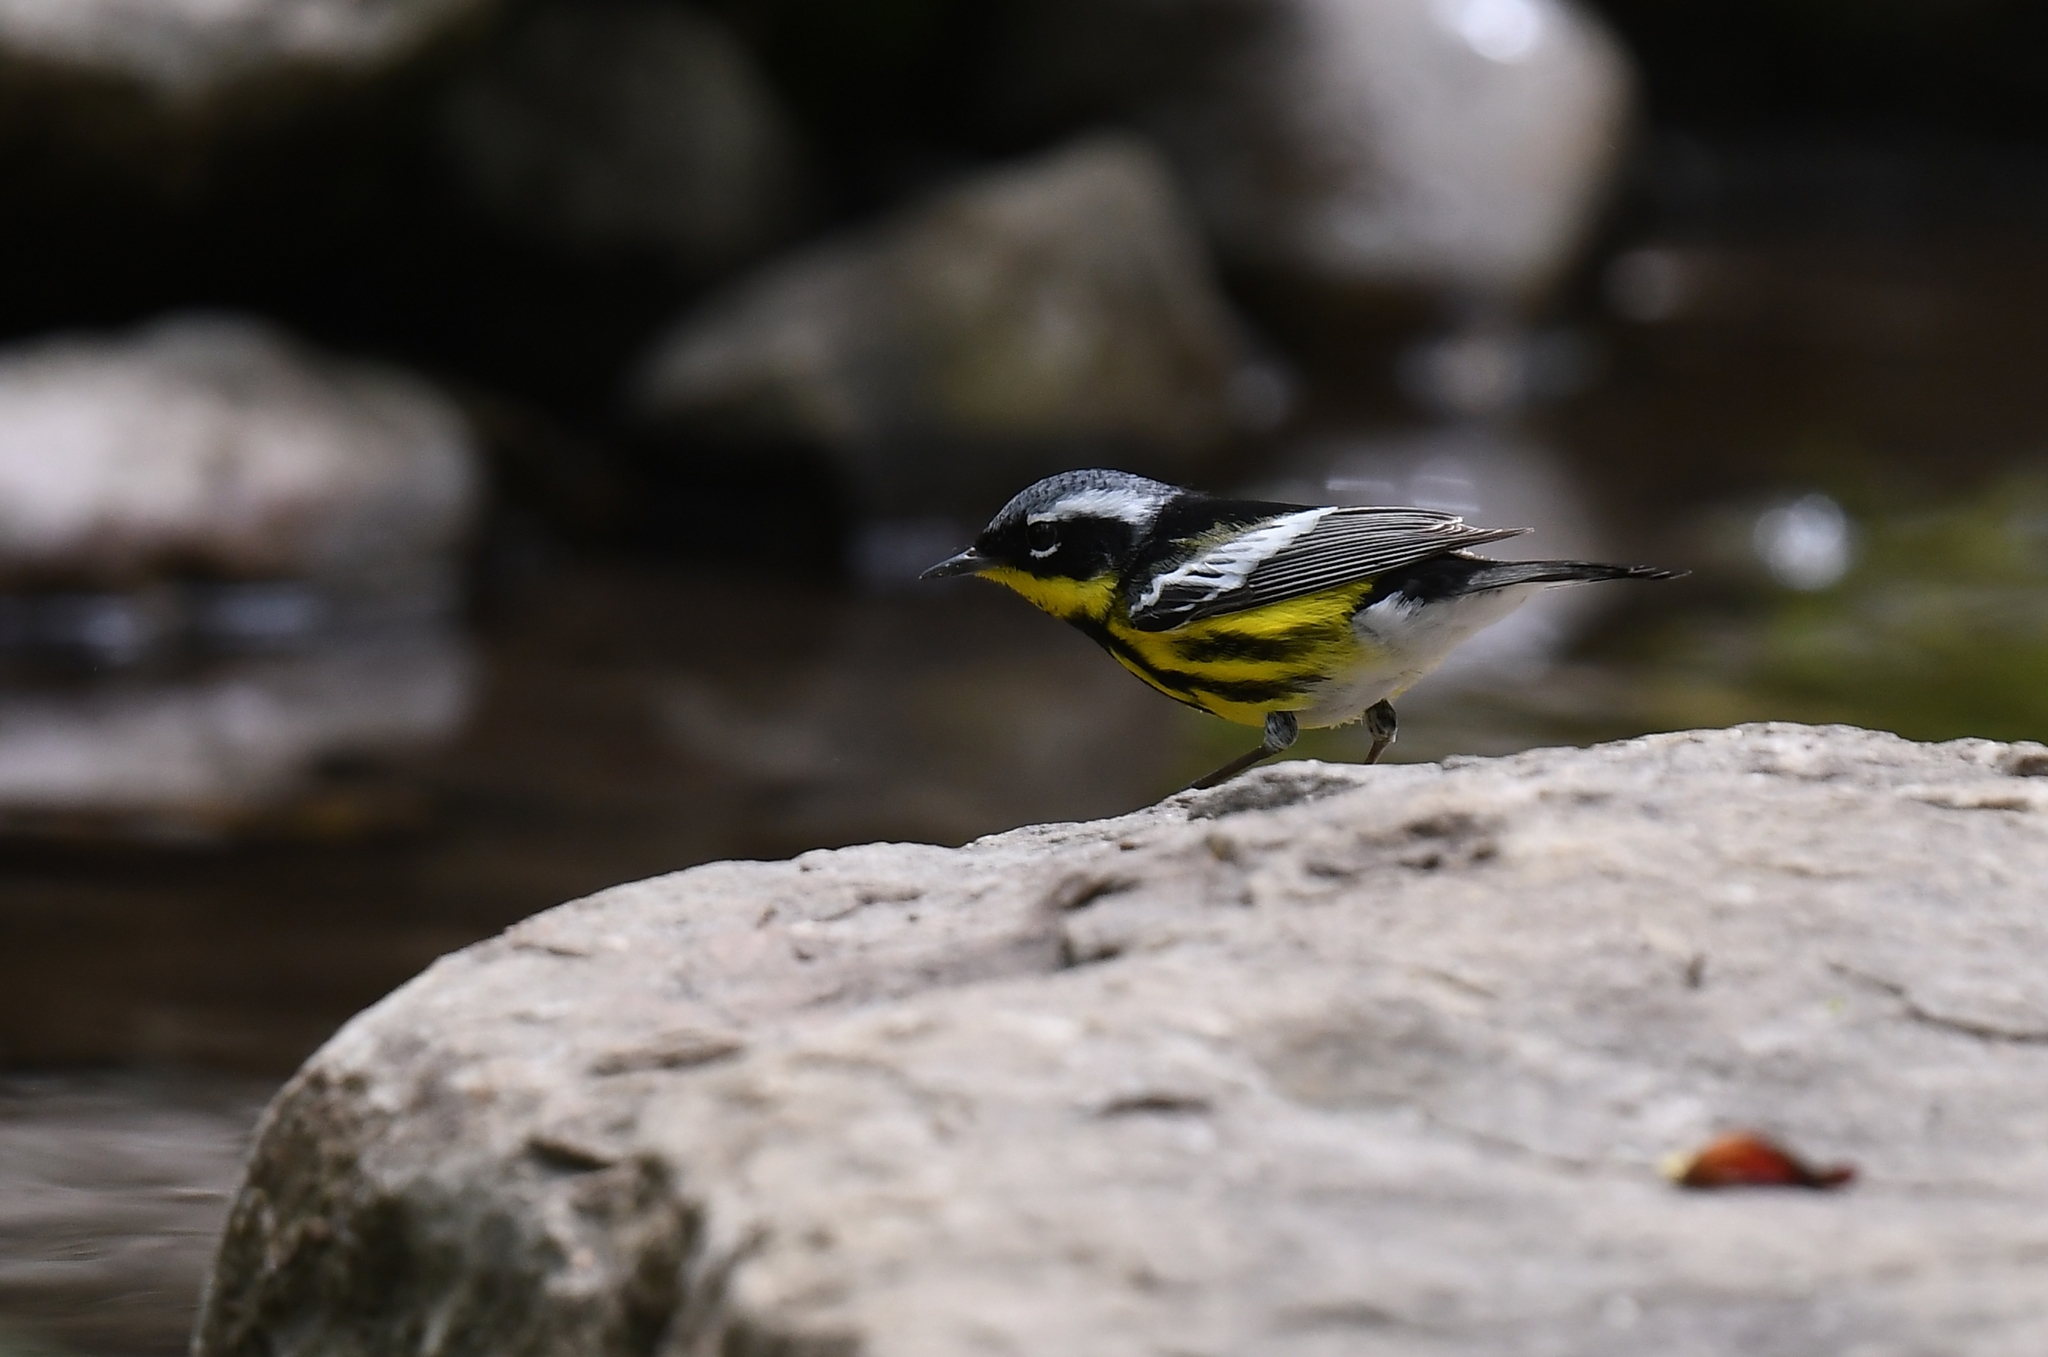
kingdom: Animalia
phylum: Chordata
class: Aves
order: Passeriformes
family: Parulidae
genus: Setophaga
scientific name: Setophaga magnolia
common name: Magnolia warbler
